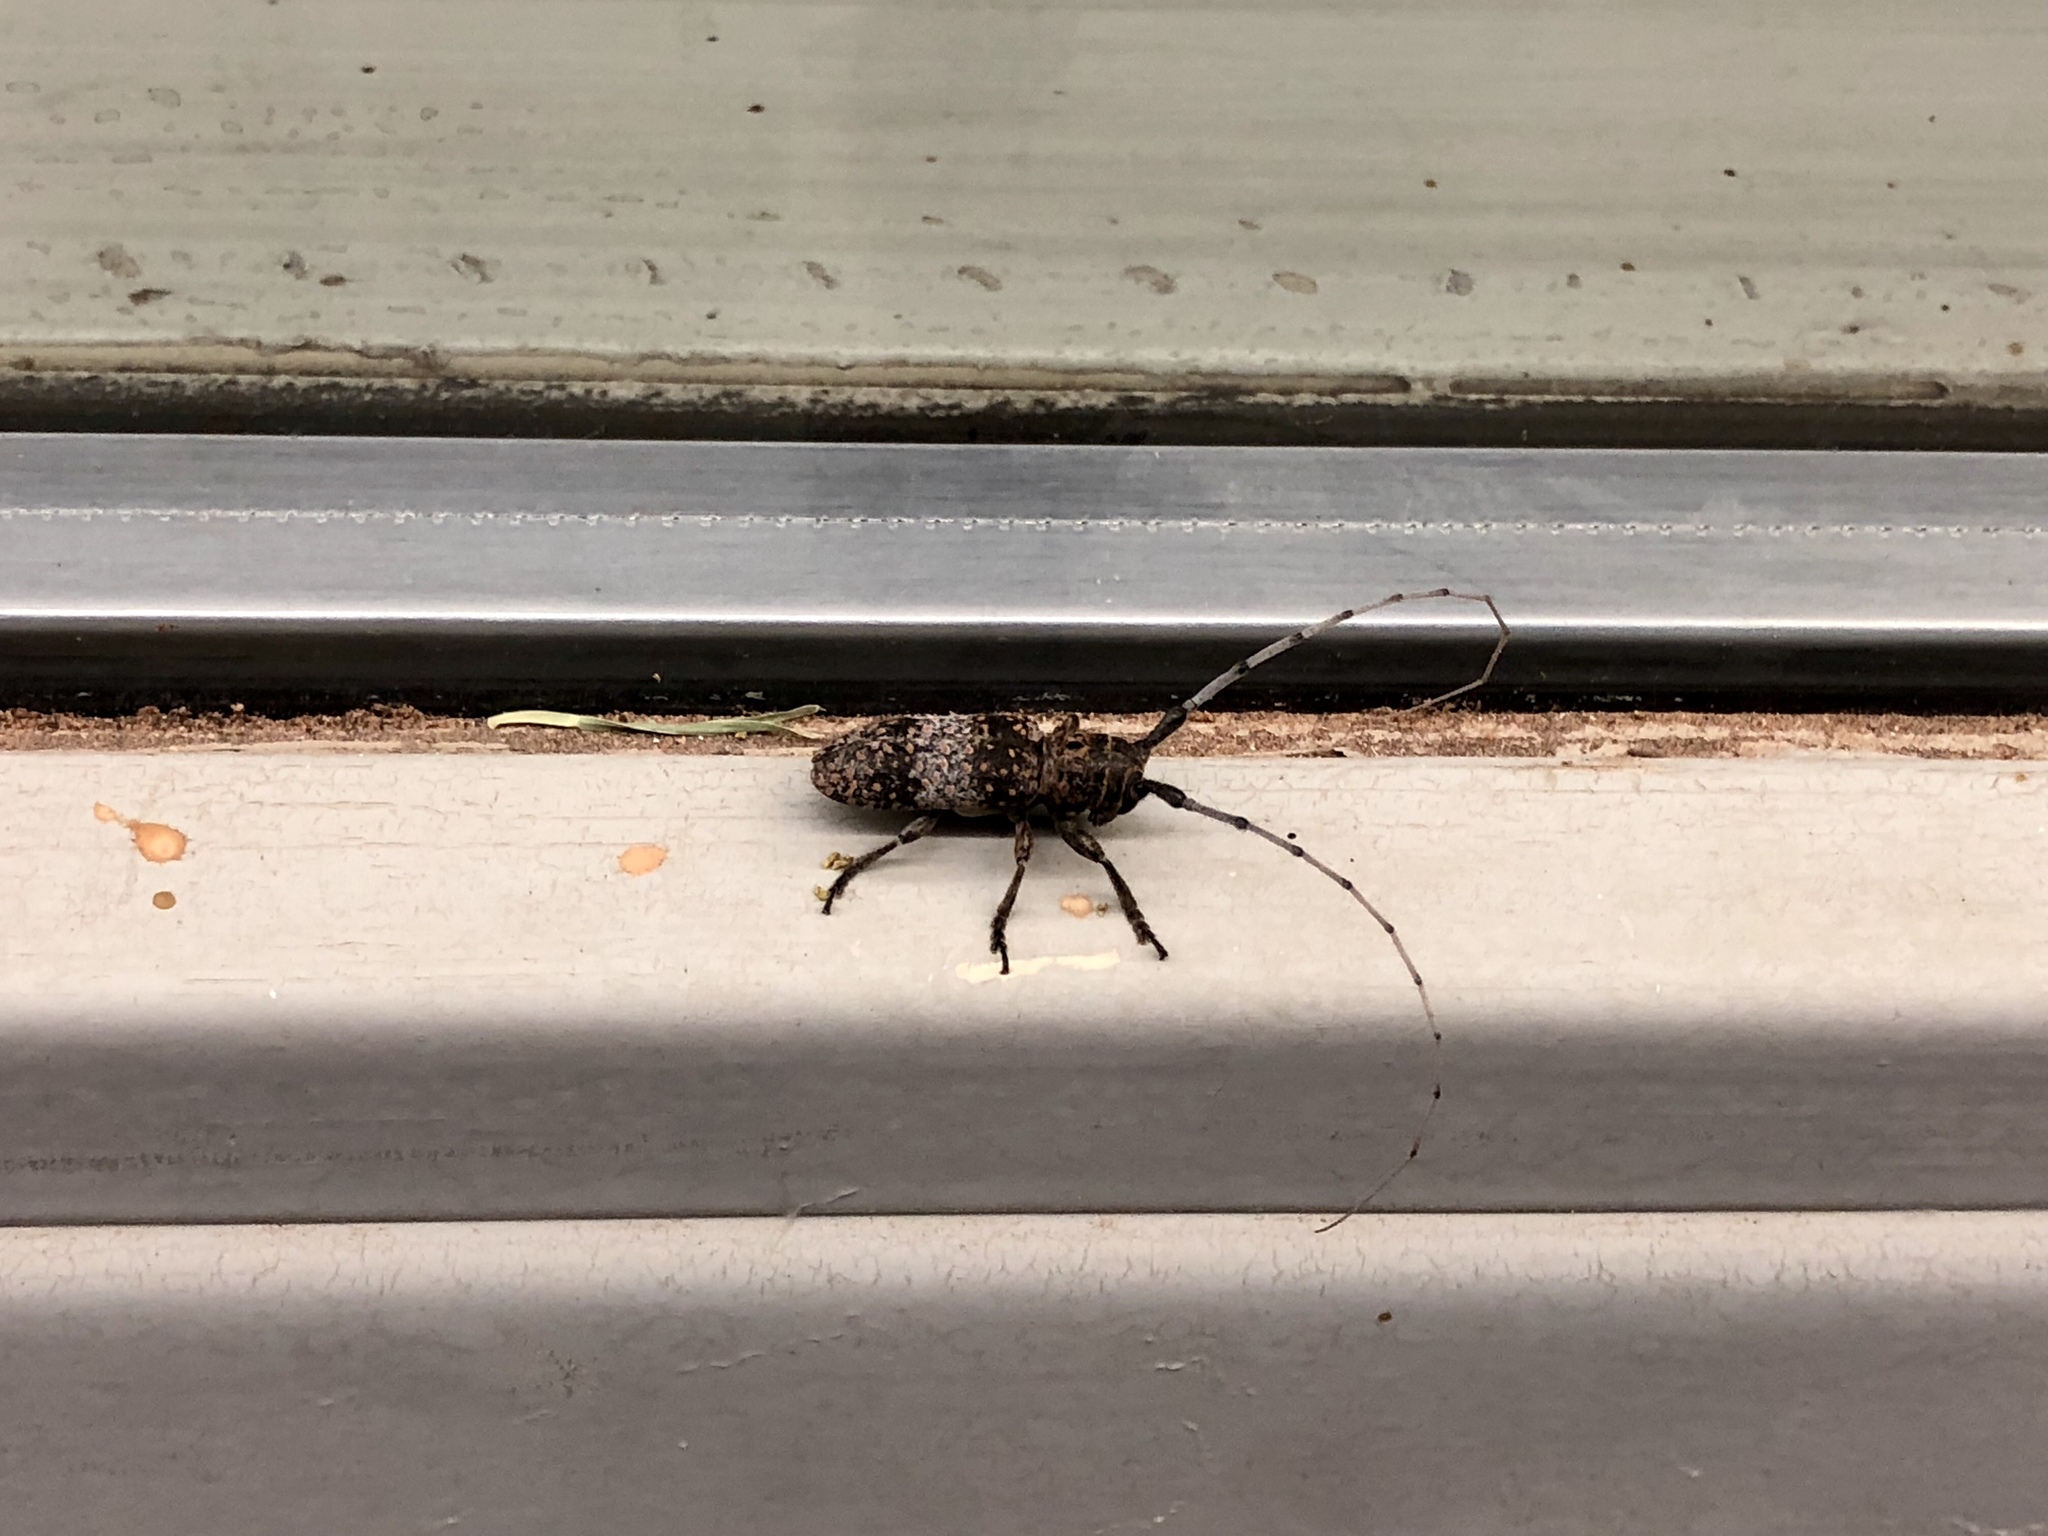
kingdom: Animalia
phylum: Arthropoda
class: Insecta
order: Coleoptera
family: Cerambycidae
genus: Oncideres
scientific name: Oncideres rhodosticta
